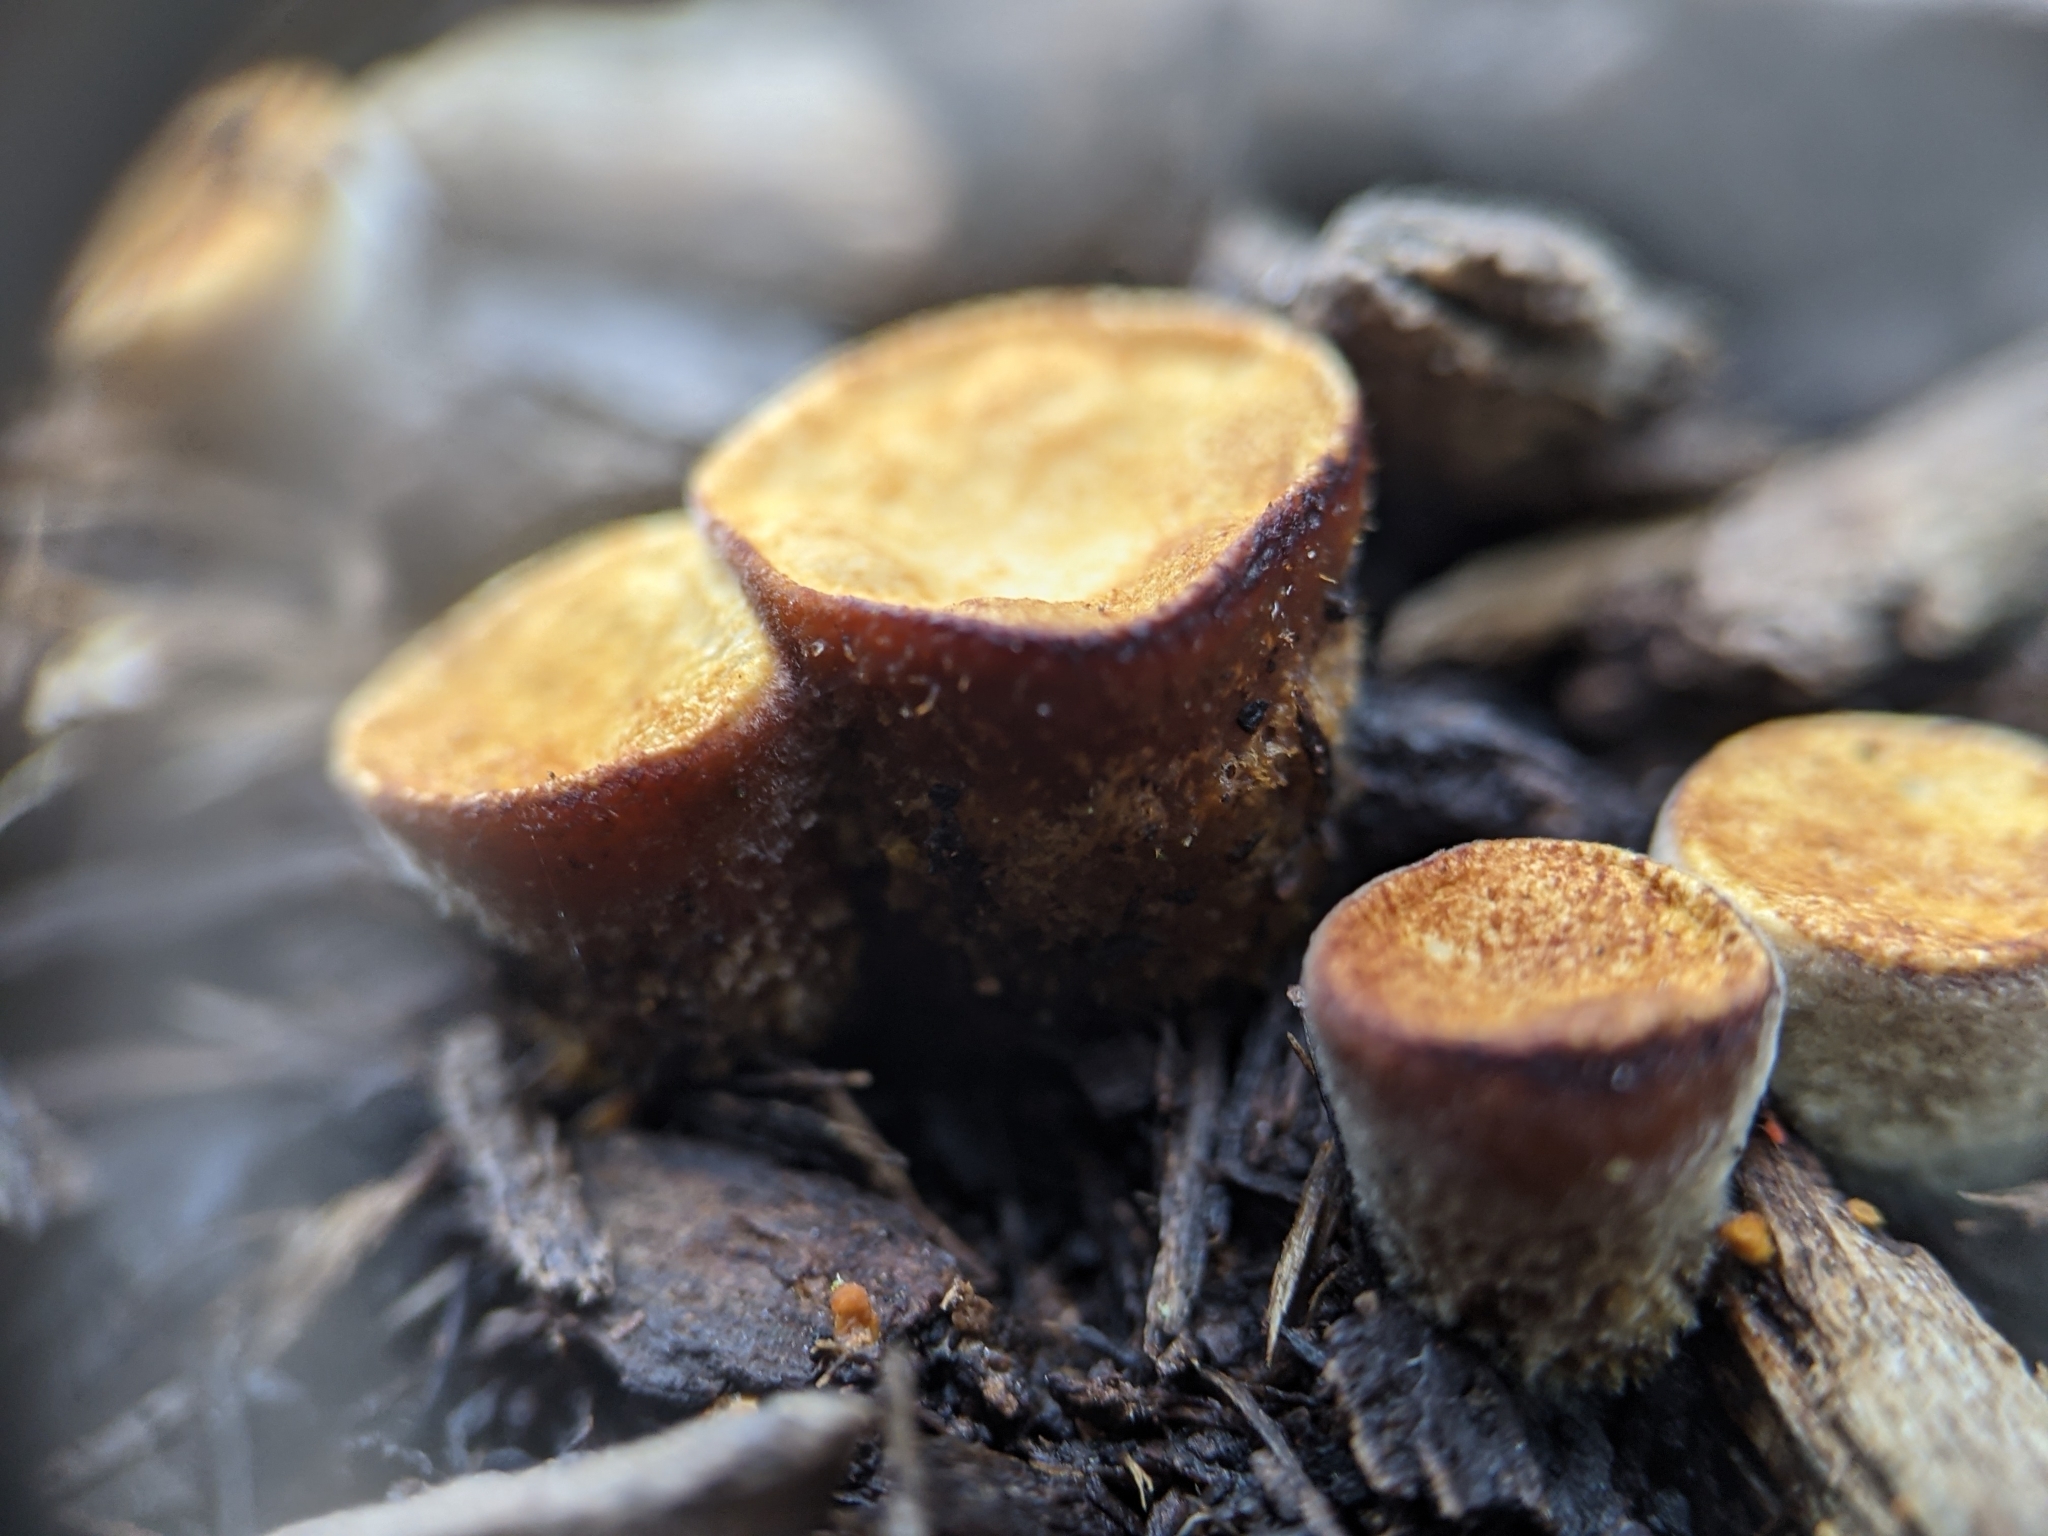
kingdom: Fungi
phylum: Basidiomycota
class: Agaricomycetes
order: Agaricales
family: Nidulariaceae
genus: Crucibulum
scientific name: Crucibulum laeve
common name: Common bird's nest
